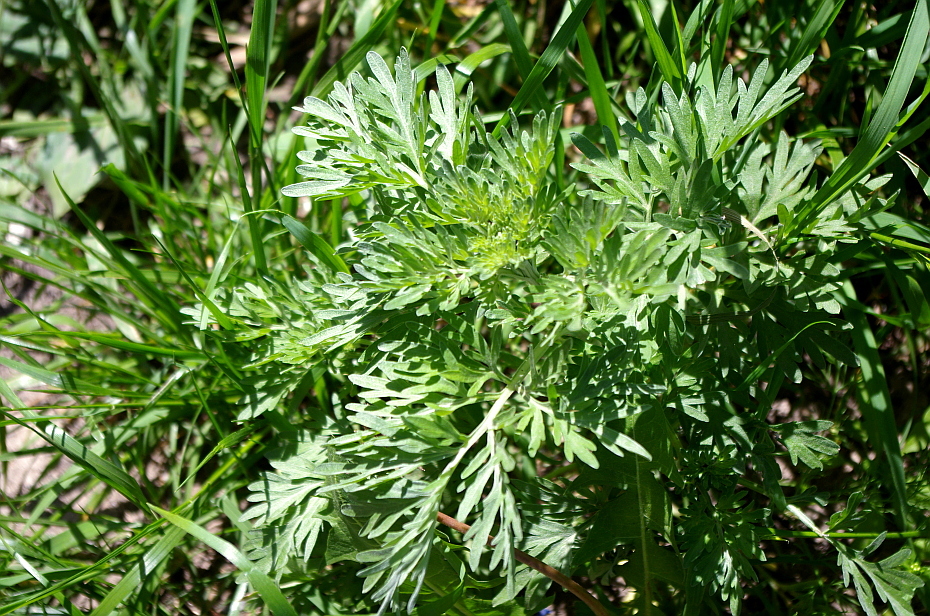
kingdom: Plantae
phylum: Tracheophyta
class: Magnoliopsida
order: Asterales
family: Asteraceae
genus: Artemisia
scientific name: Artemisia absinthium
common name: Wormwood
